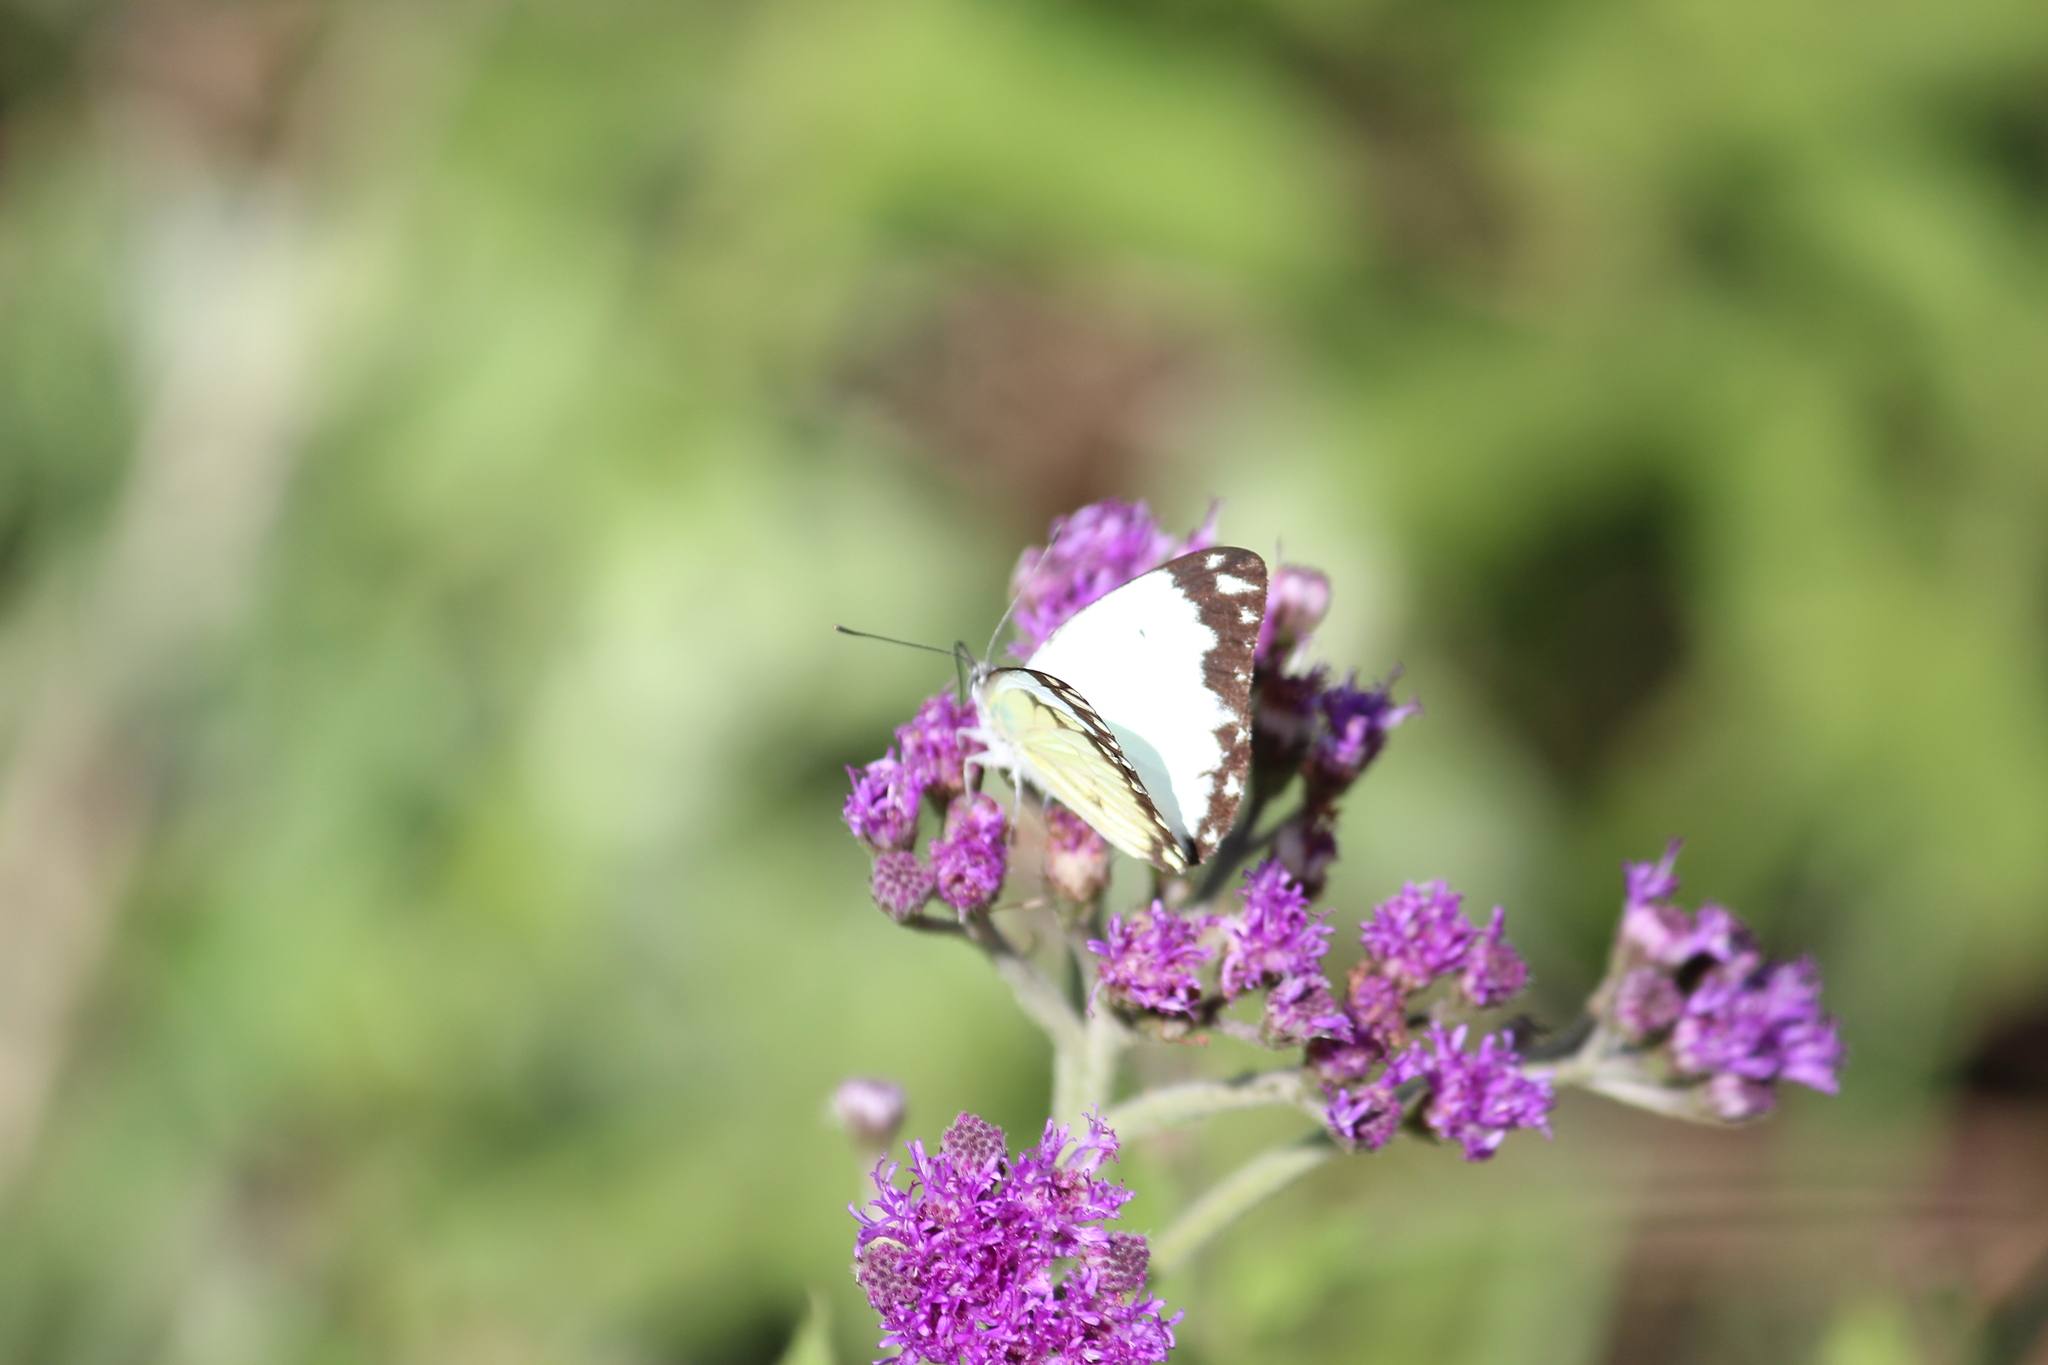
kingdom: Animalia
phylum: Arthropoda
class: Insecta
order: Lepidoptera
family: Pieridae
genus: Belenois
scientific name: Belenois creona
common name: African caper white
